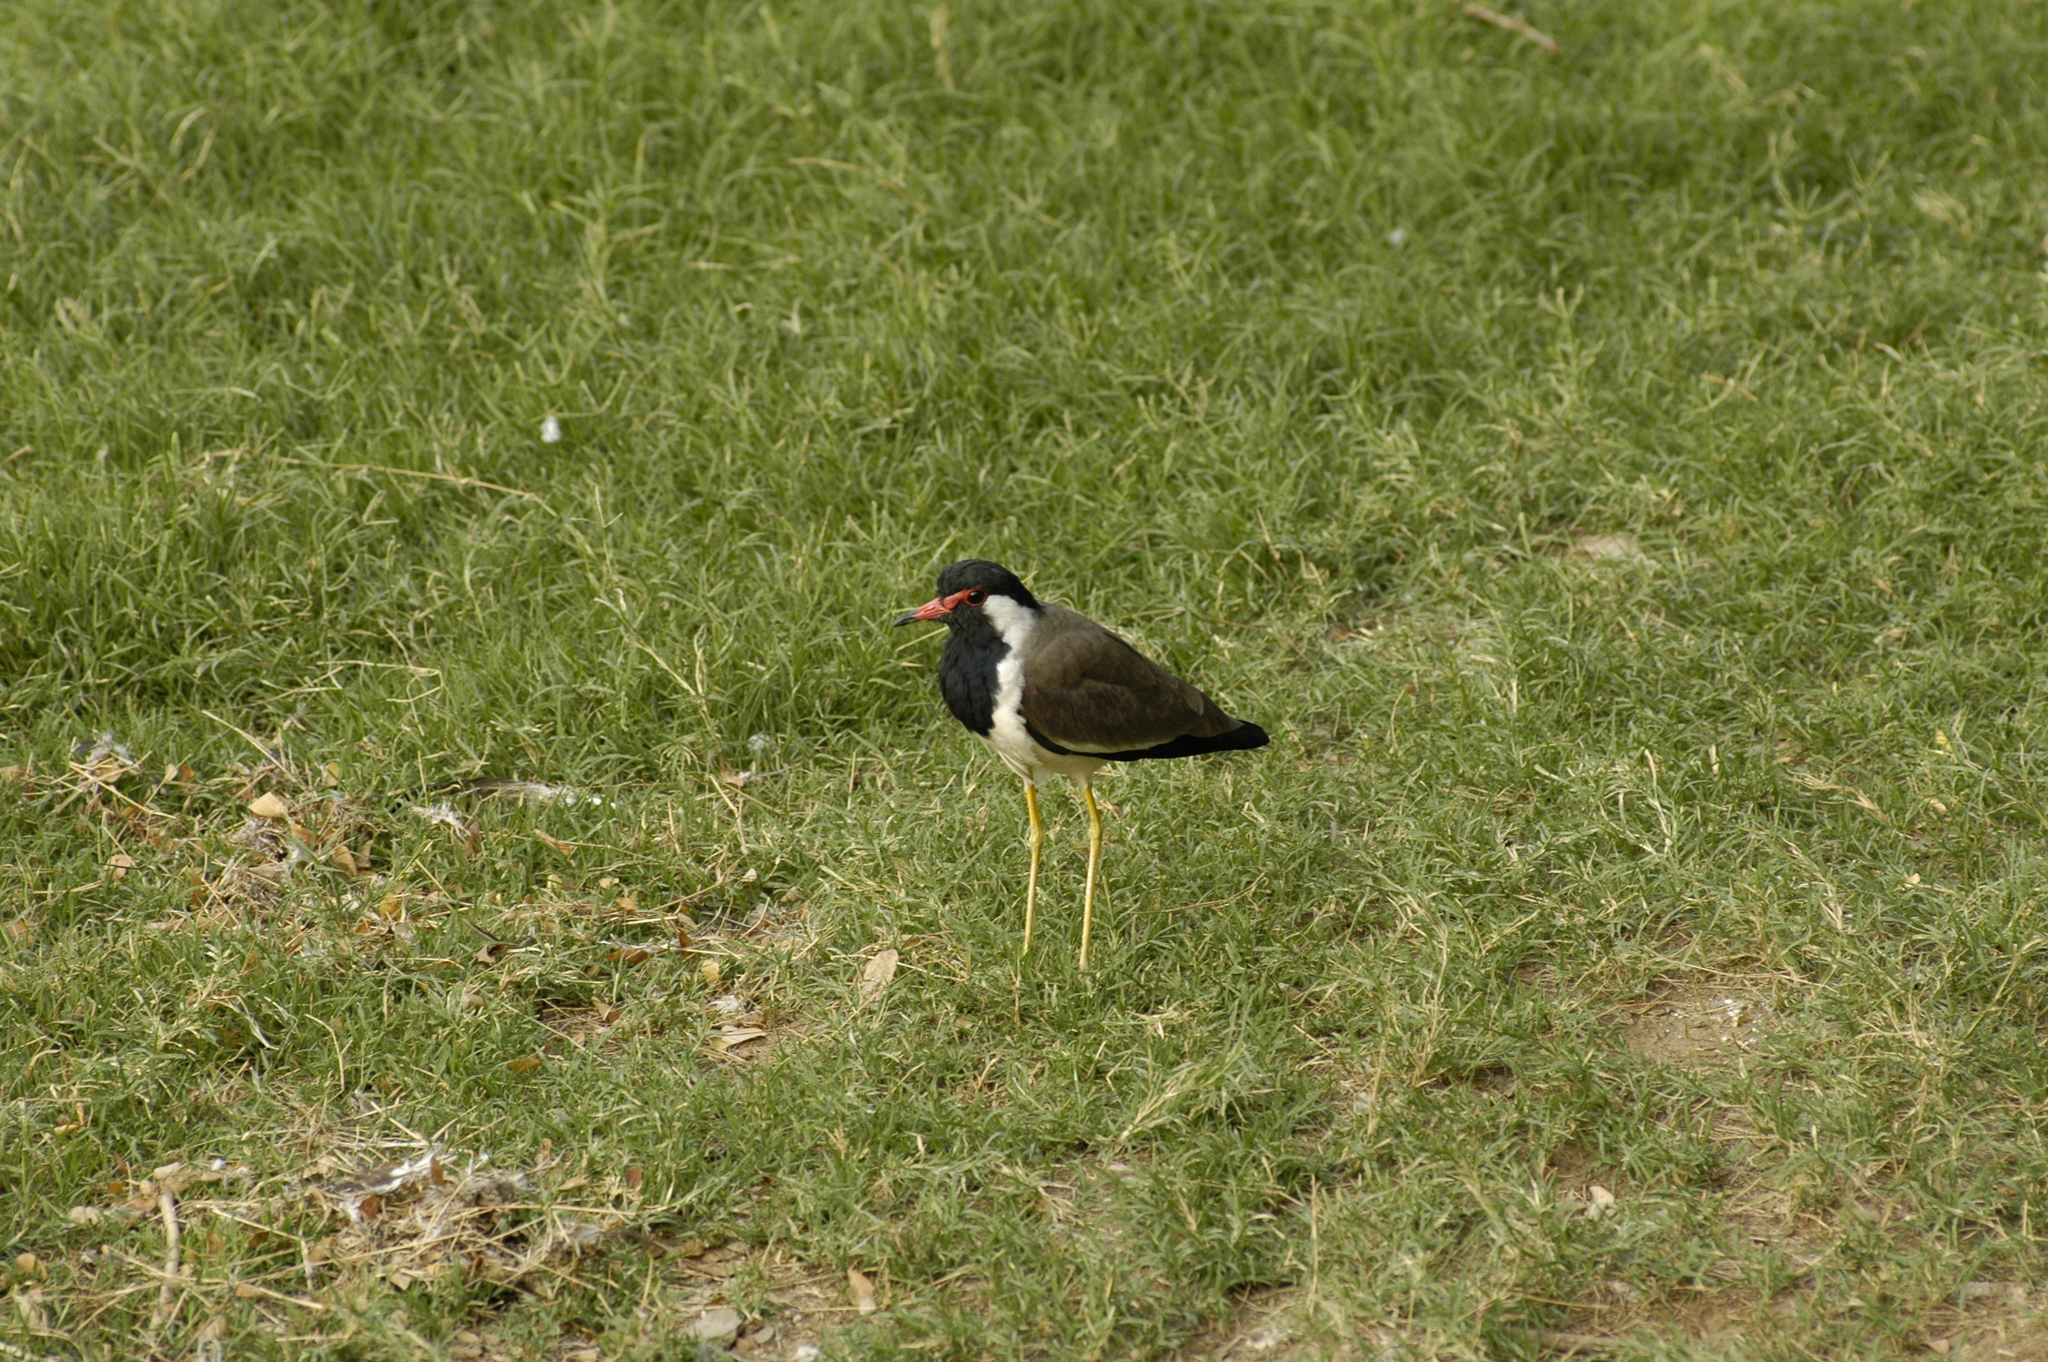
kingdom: Animalia
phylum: Chordata
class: Aves
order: Charadriiformes
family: Charadriidae
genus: Vanellus
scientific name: Vanellus indicus
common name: Red-wattled lapwing
